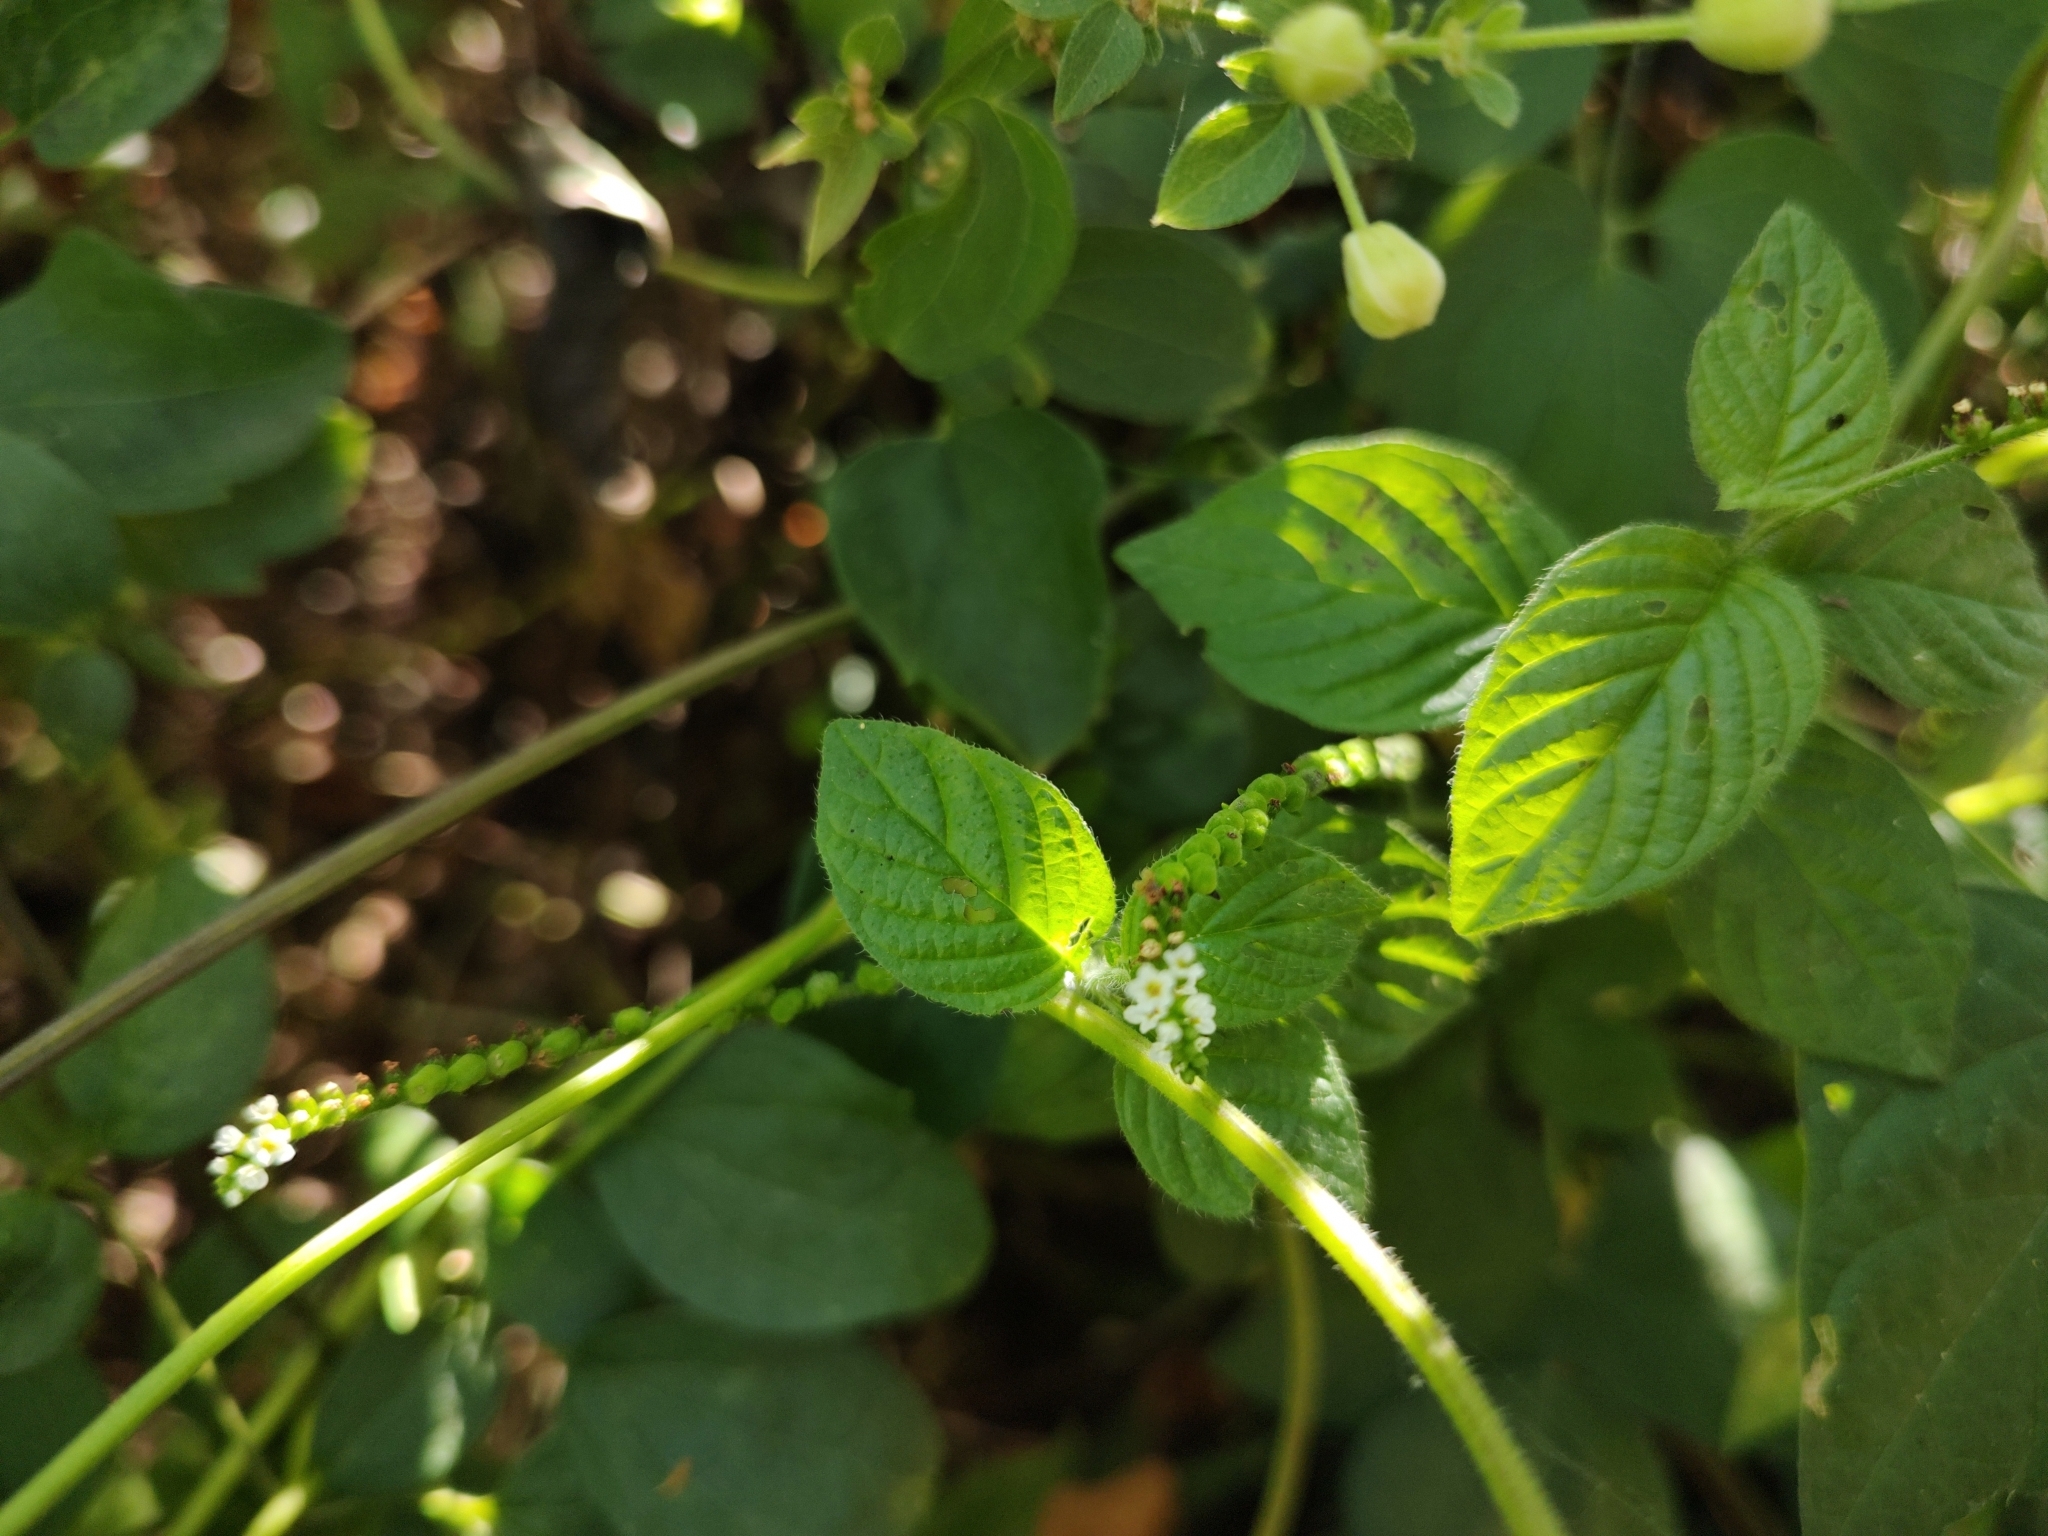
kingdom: Plantae
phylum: Tracheophyta
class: Magnoliopsida
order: Boraginales
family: Heliotropiaceae
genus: Heliotropium
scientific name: Heliotropium angiospermum
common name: Eye bright
